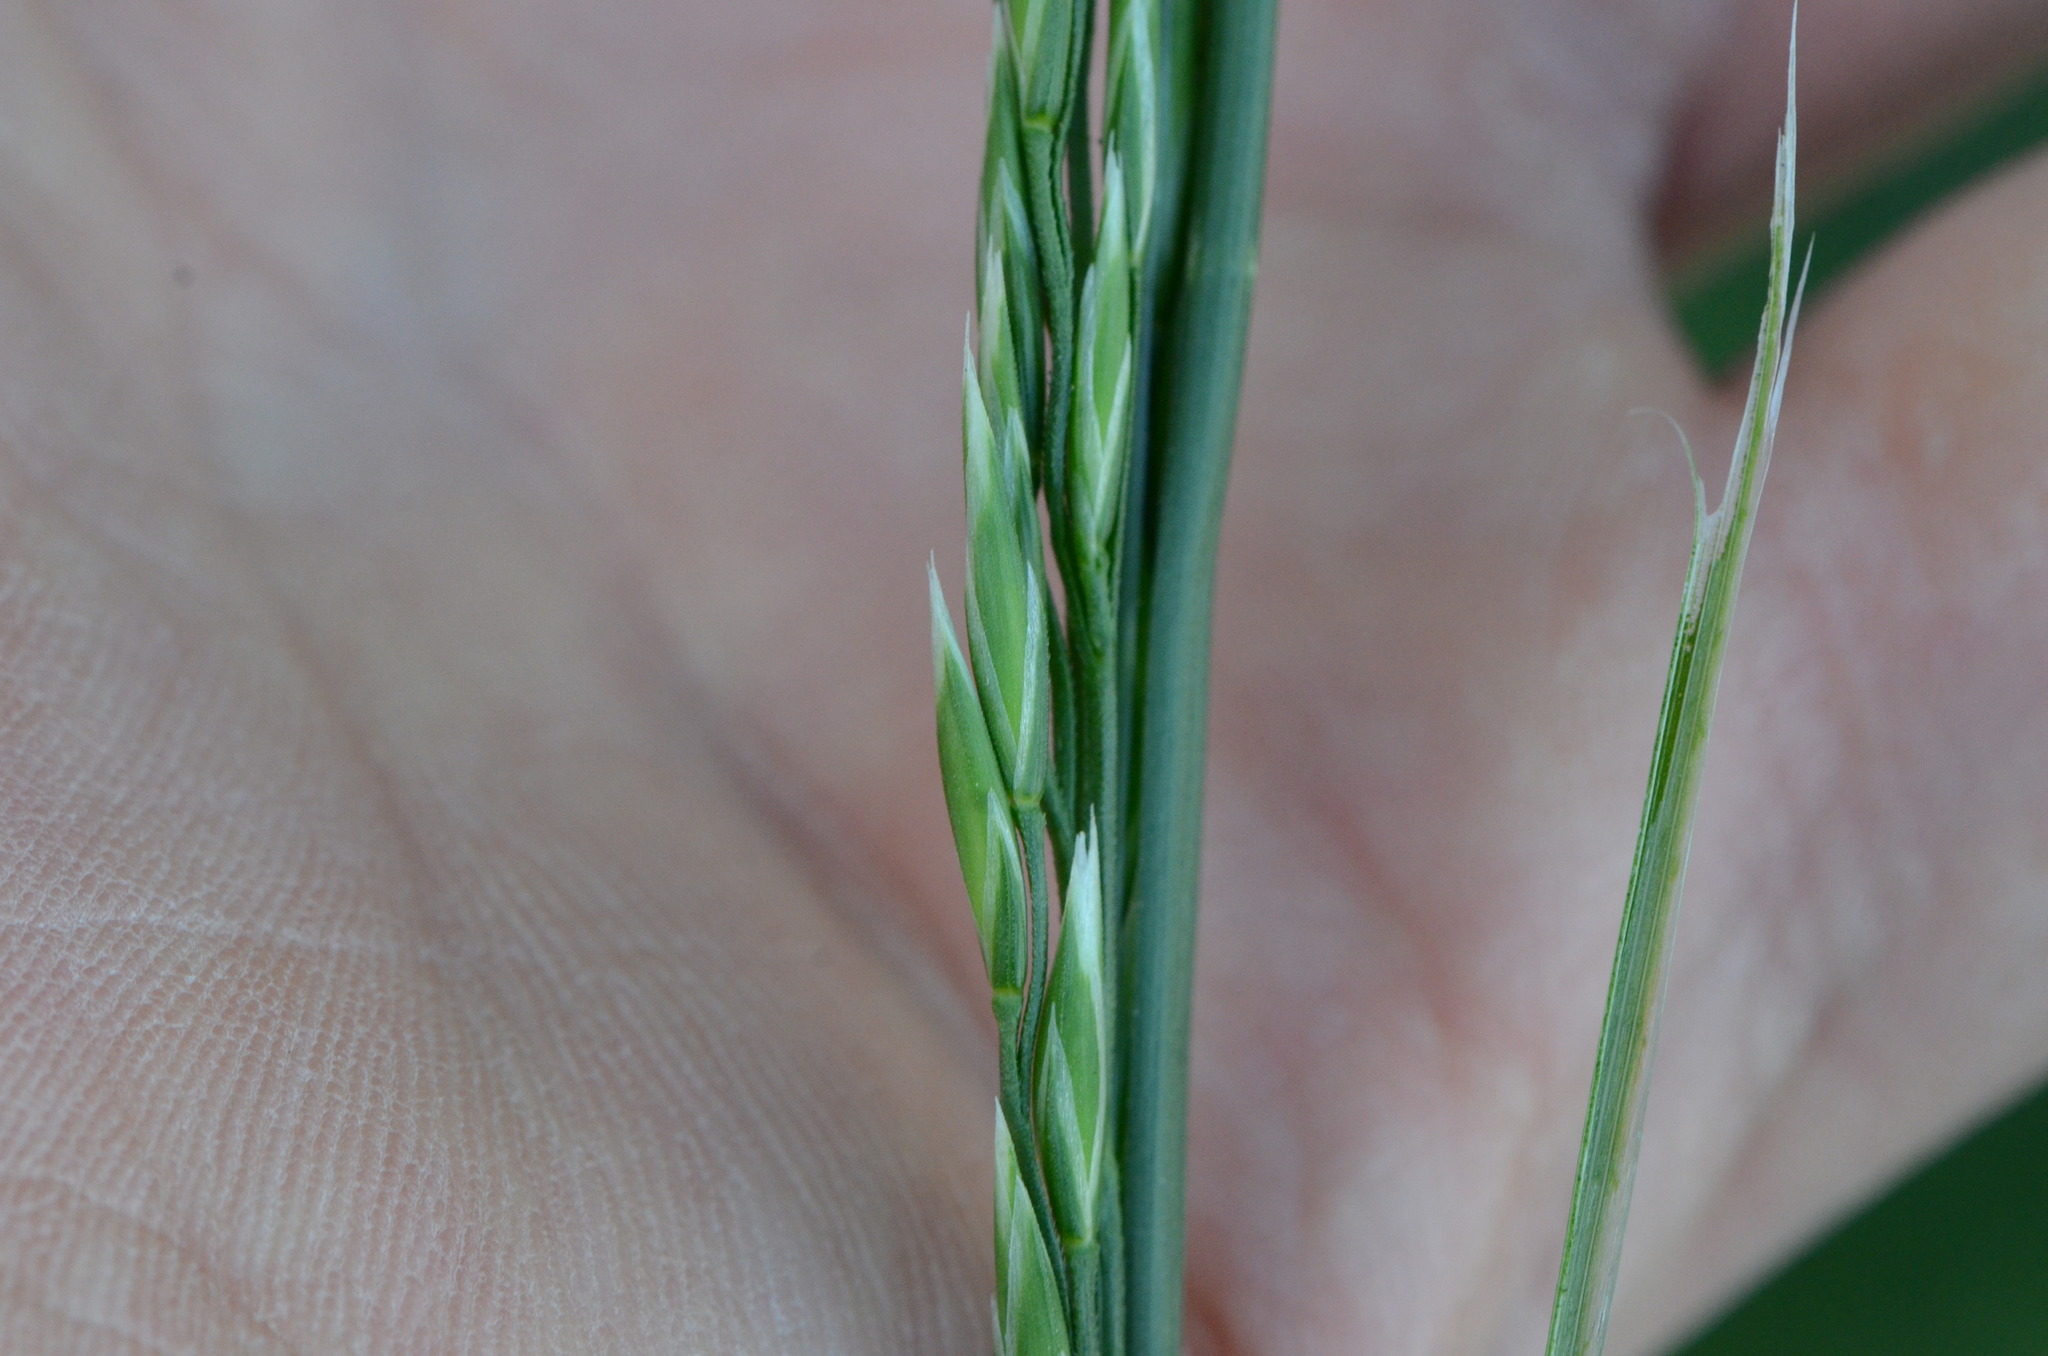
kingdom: Plantae
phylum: Tracheophyta
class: Liliopsida
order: Poales
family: Poaceae
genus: Lolium
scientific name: Lolium arundinaceum
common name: Reed fescue
